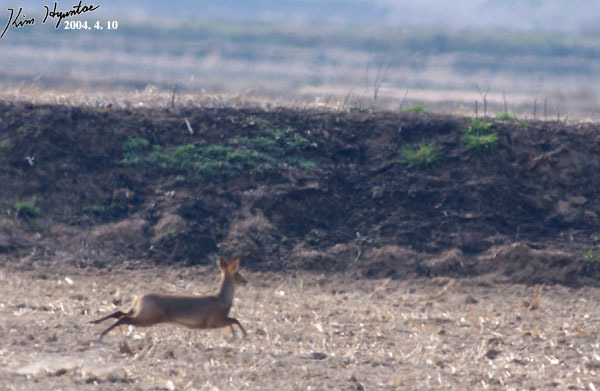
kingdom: Animalia
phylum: Chordata
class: Mammalia
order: Artiodactyla
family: Cervidae
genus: Hydropotes
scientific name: Hydropotes inermis
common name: Chinese water deer
